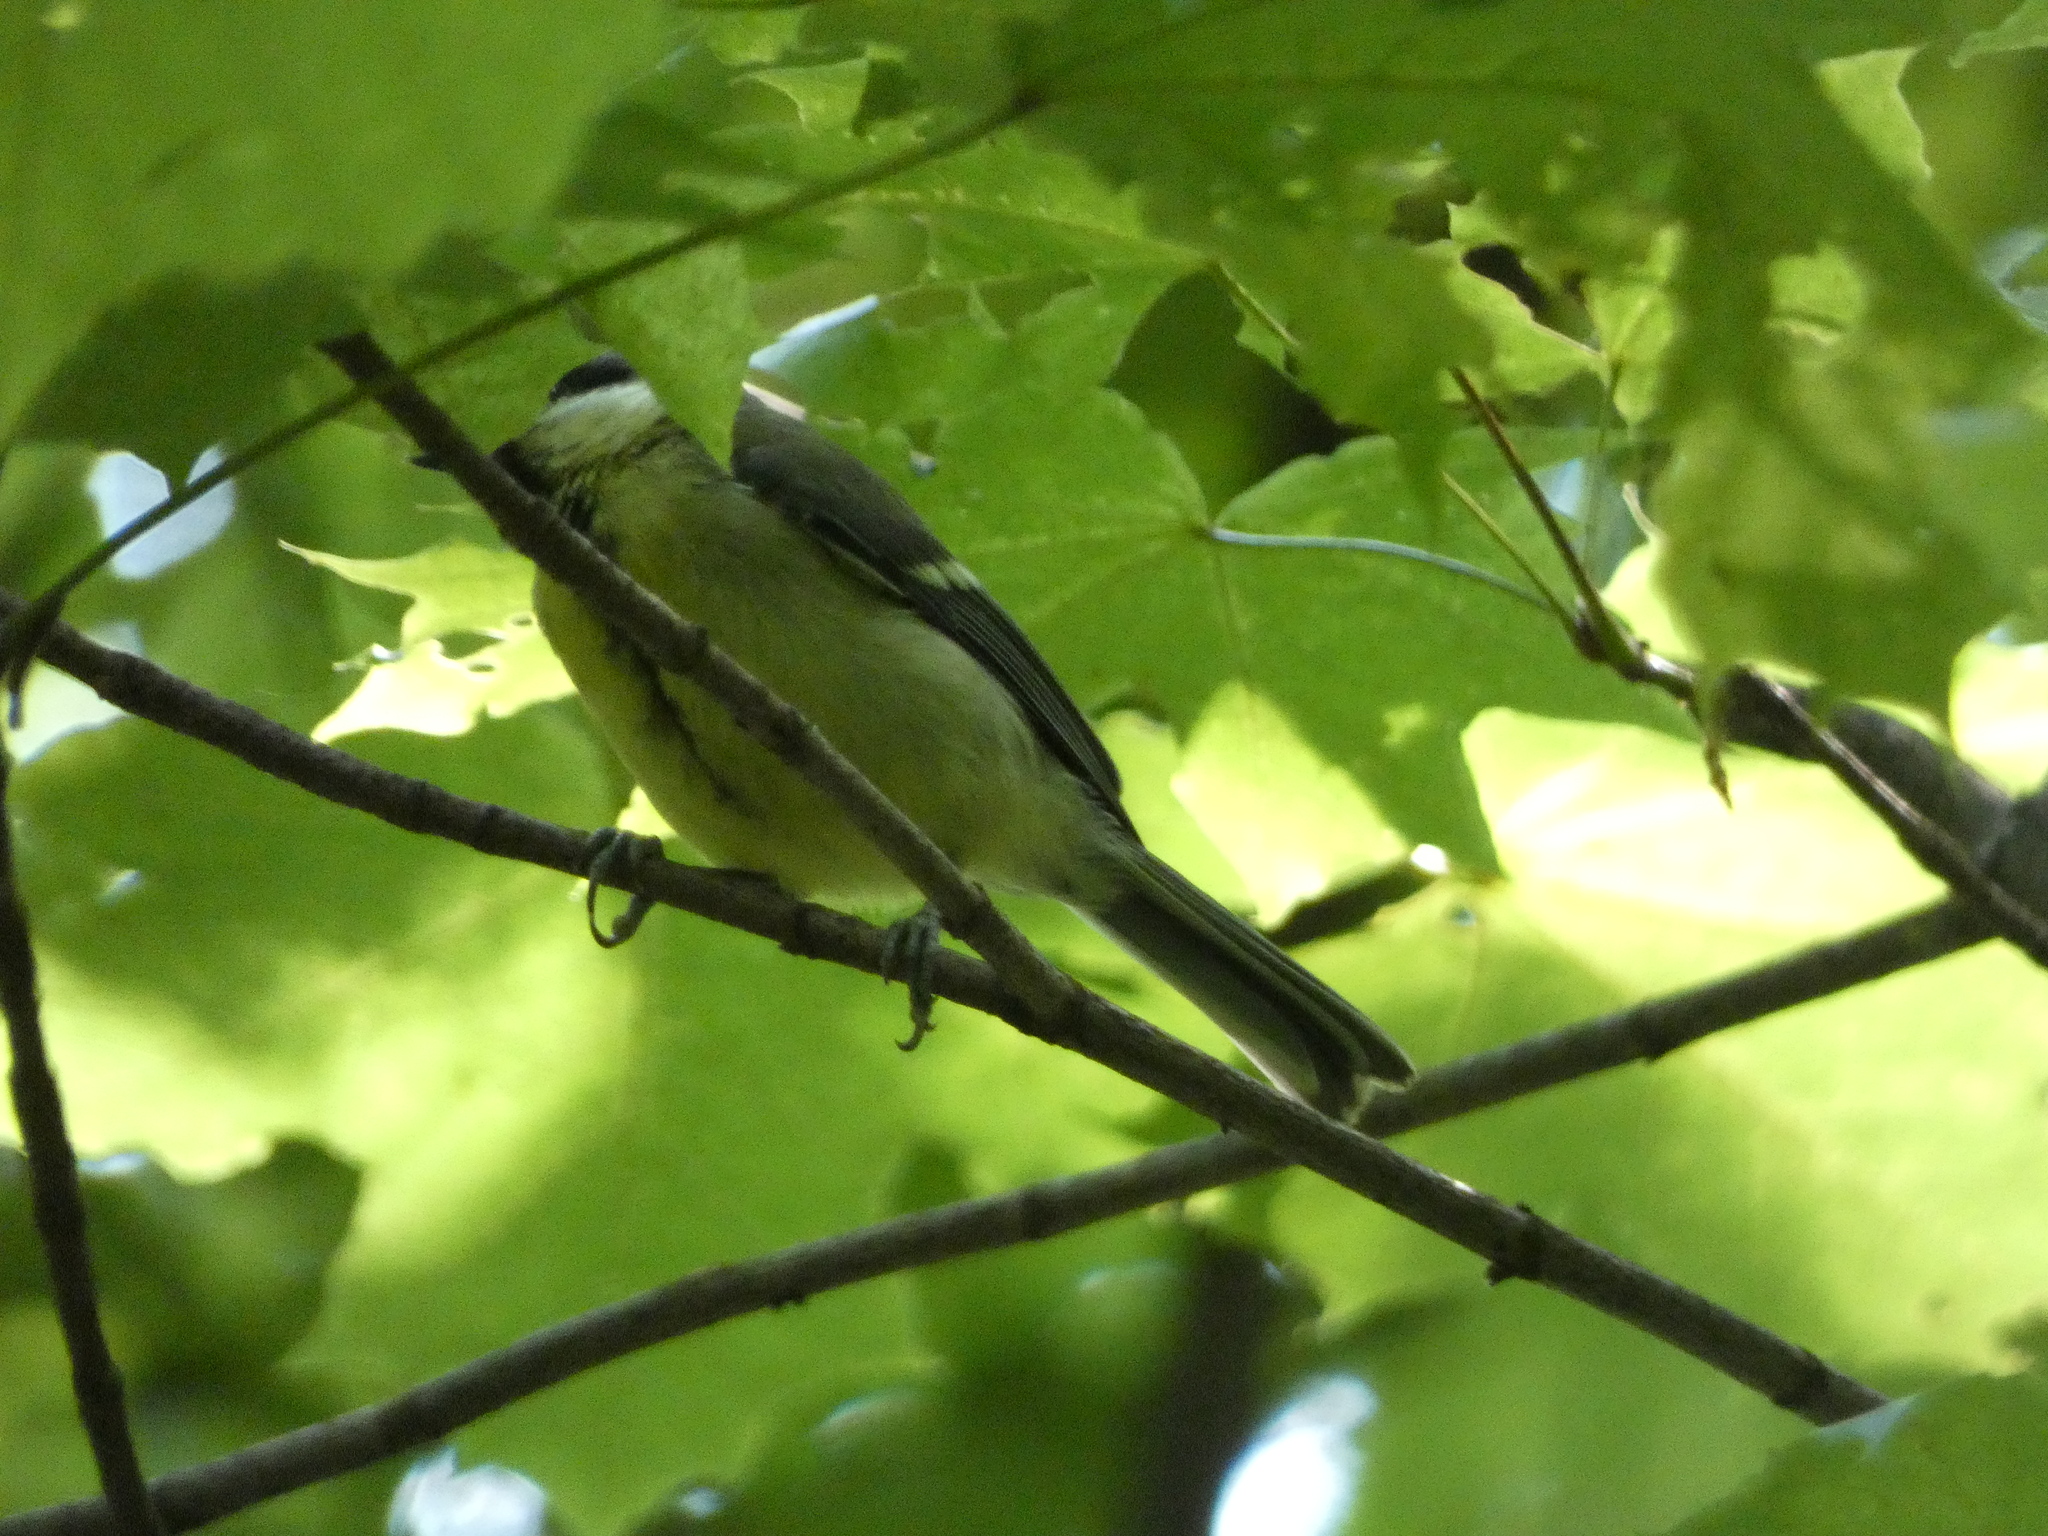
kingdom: Animalia
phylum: Chordata
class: Aves
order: Passeriformes
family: Paridae
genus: Parus
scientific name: Parus major
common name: Great tit
